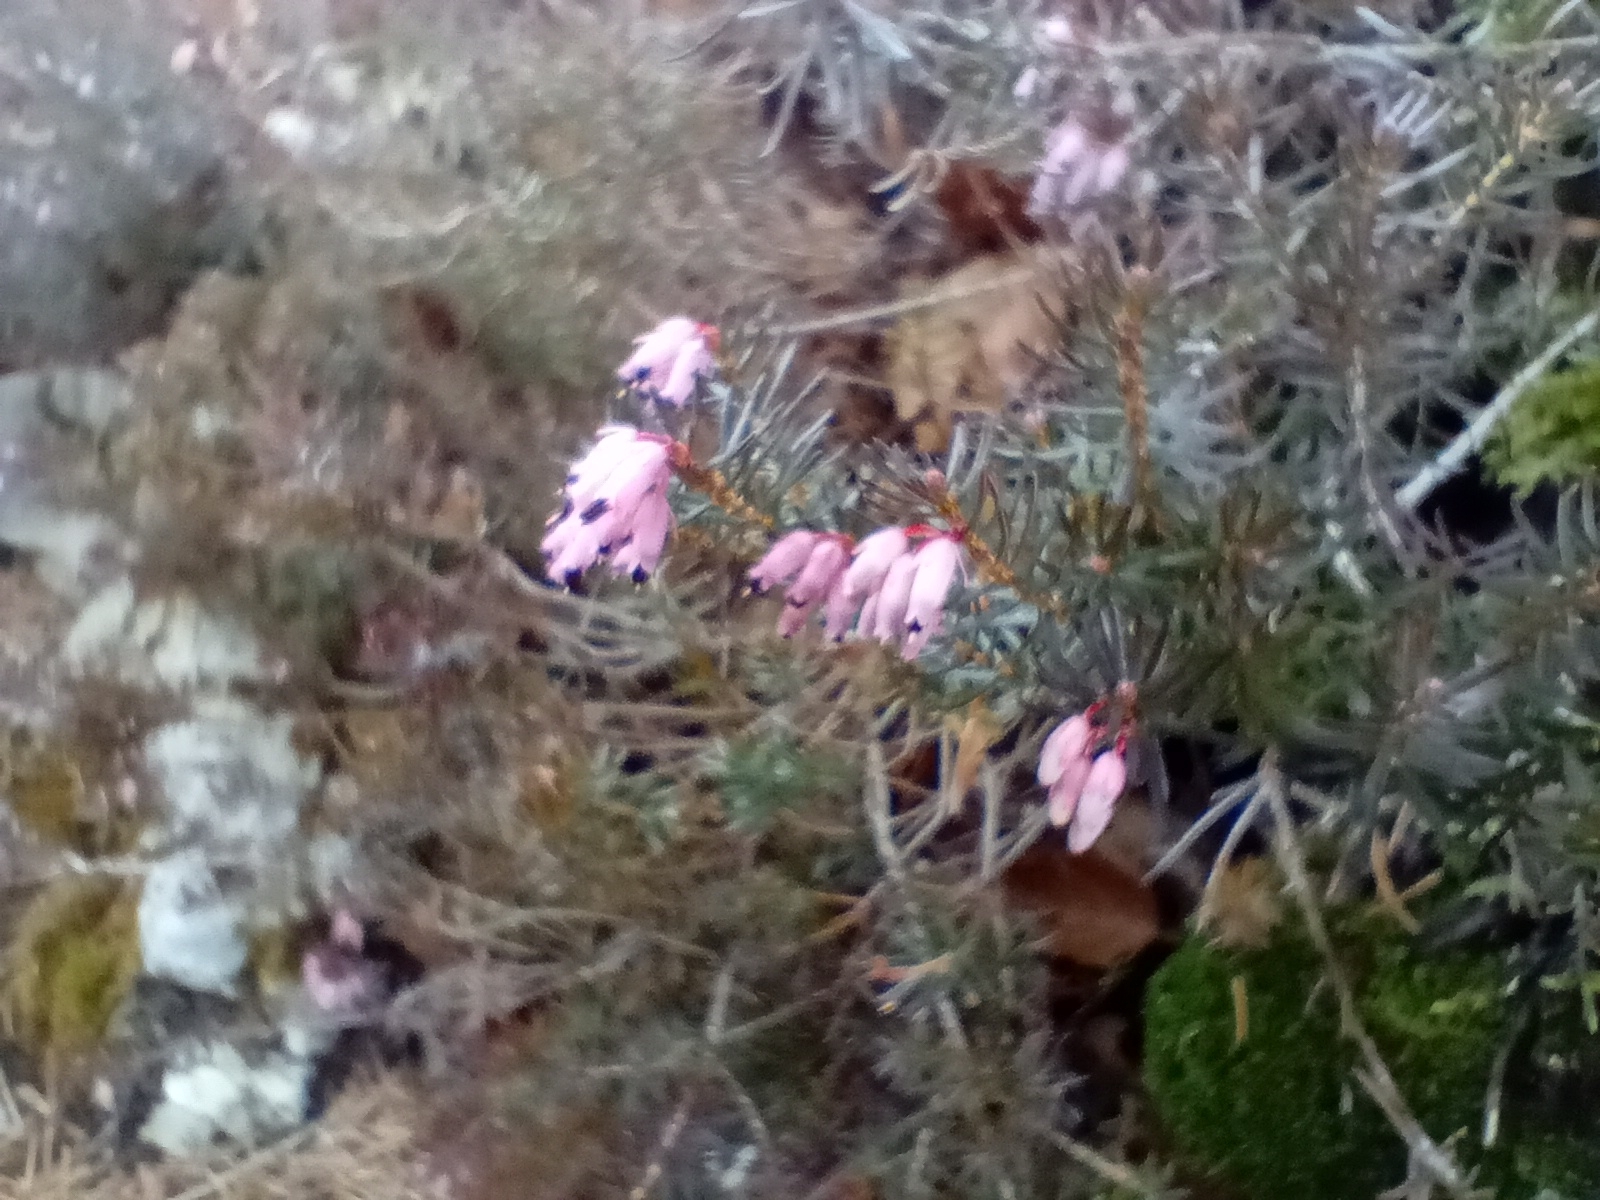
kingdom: Plantae
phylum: Tracheophyta
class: Magnoliopsida
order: Ericales
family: Ericaceae
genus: Erica
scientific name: Erica carnea
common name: Winter heath
